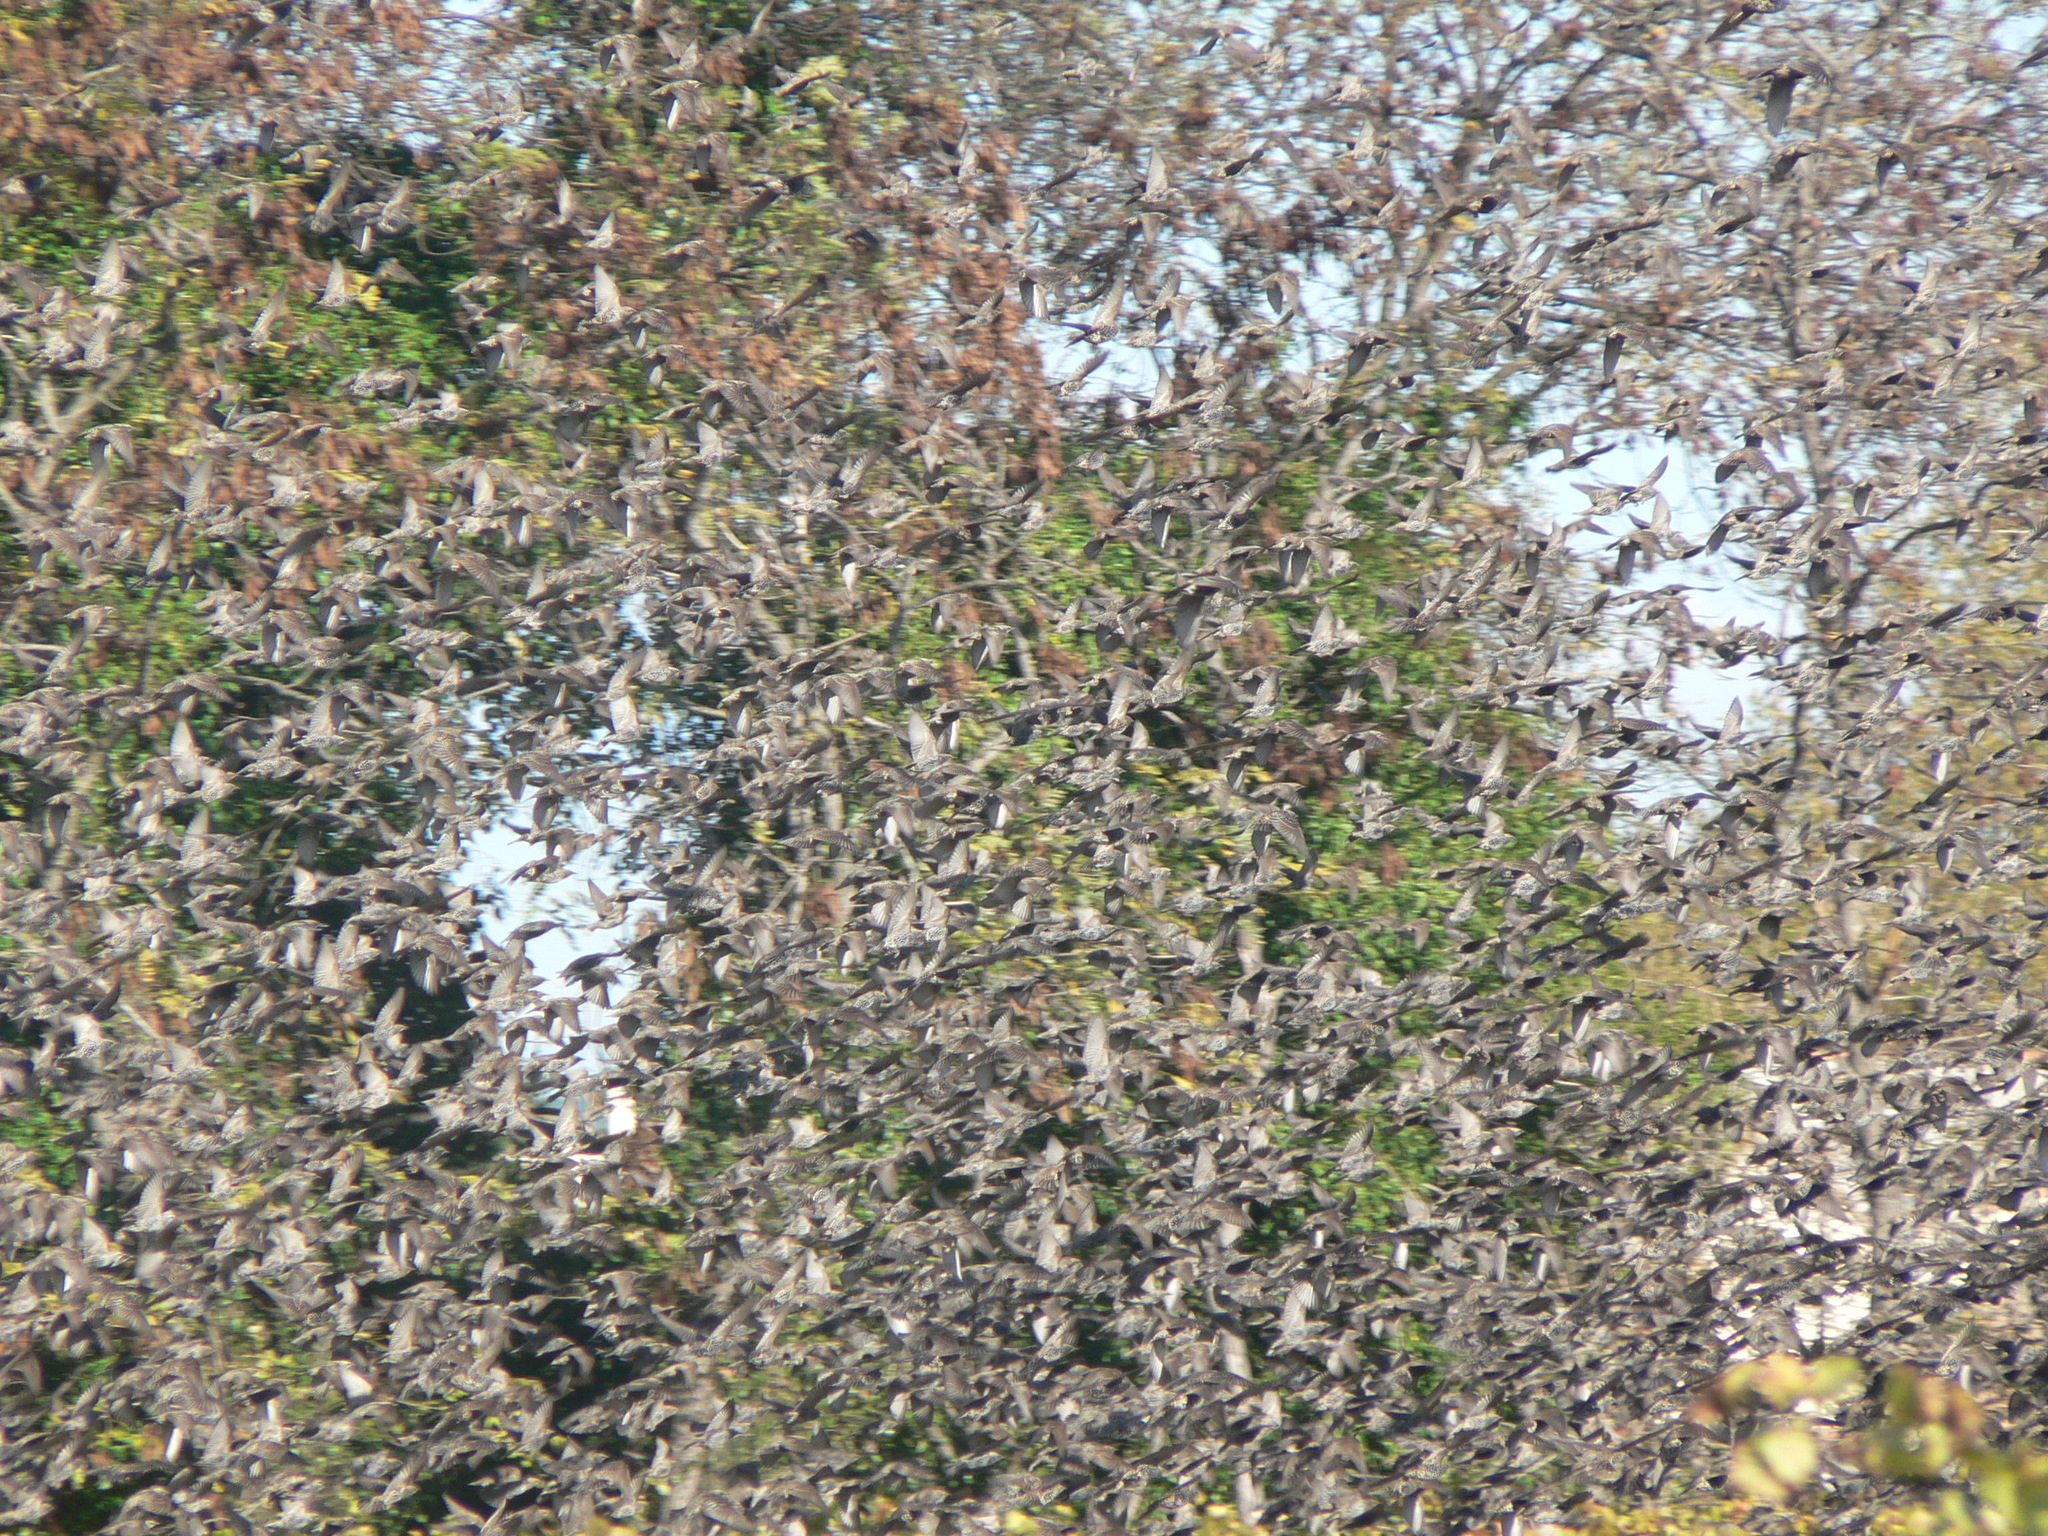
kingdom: Animalia
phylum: Chordata
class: Aves
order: Passeriformes
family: Sturnidae
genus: Sturnus
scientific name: Sturnus vulgaris
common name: Common starling
